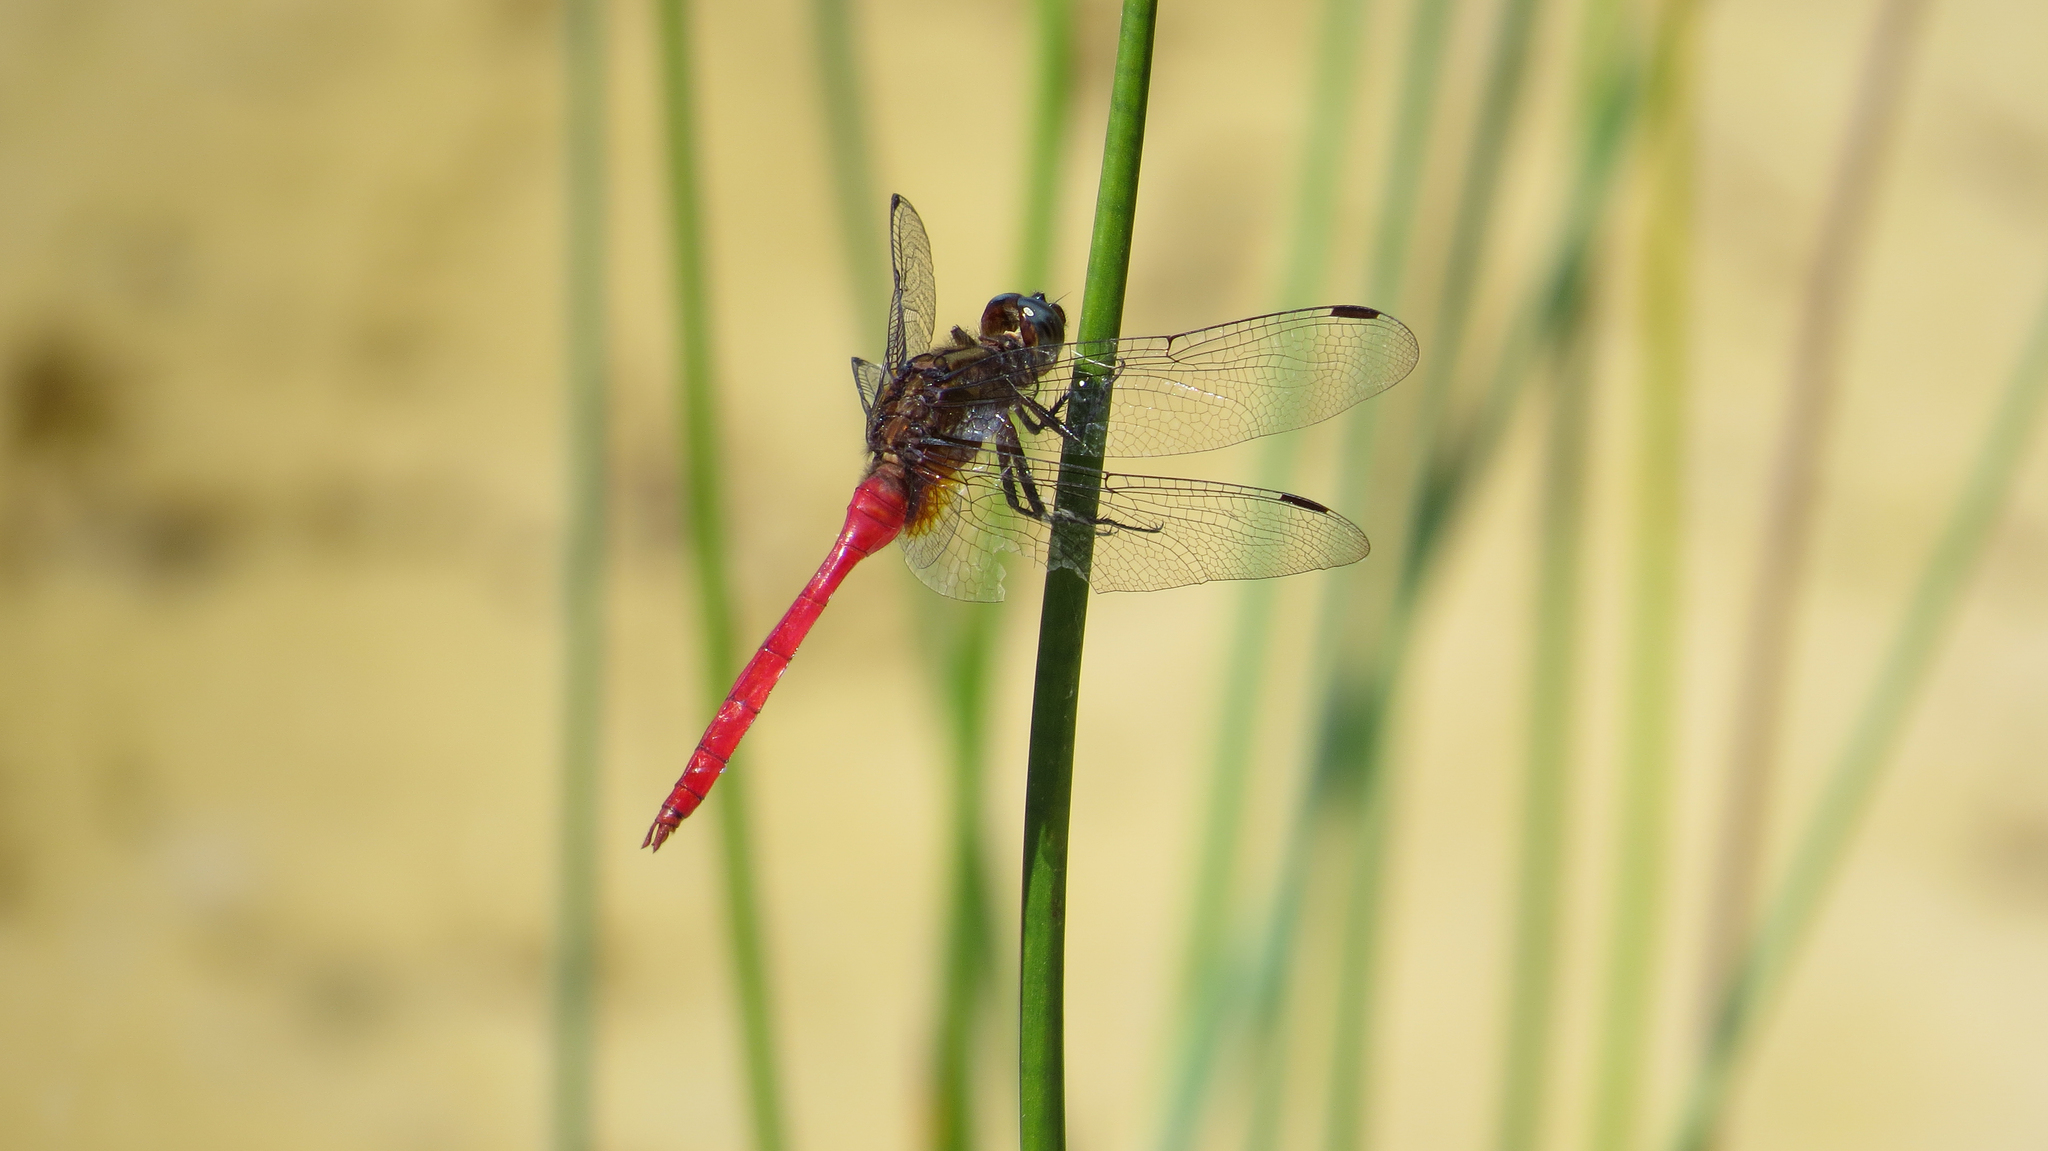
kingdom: Animalia
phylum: Arthropoda
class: Insecta
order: Odonata
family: Libellulidae
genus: Orthetrum
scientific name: Orthetrum villosovittatum
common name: Firery skimmer
